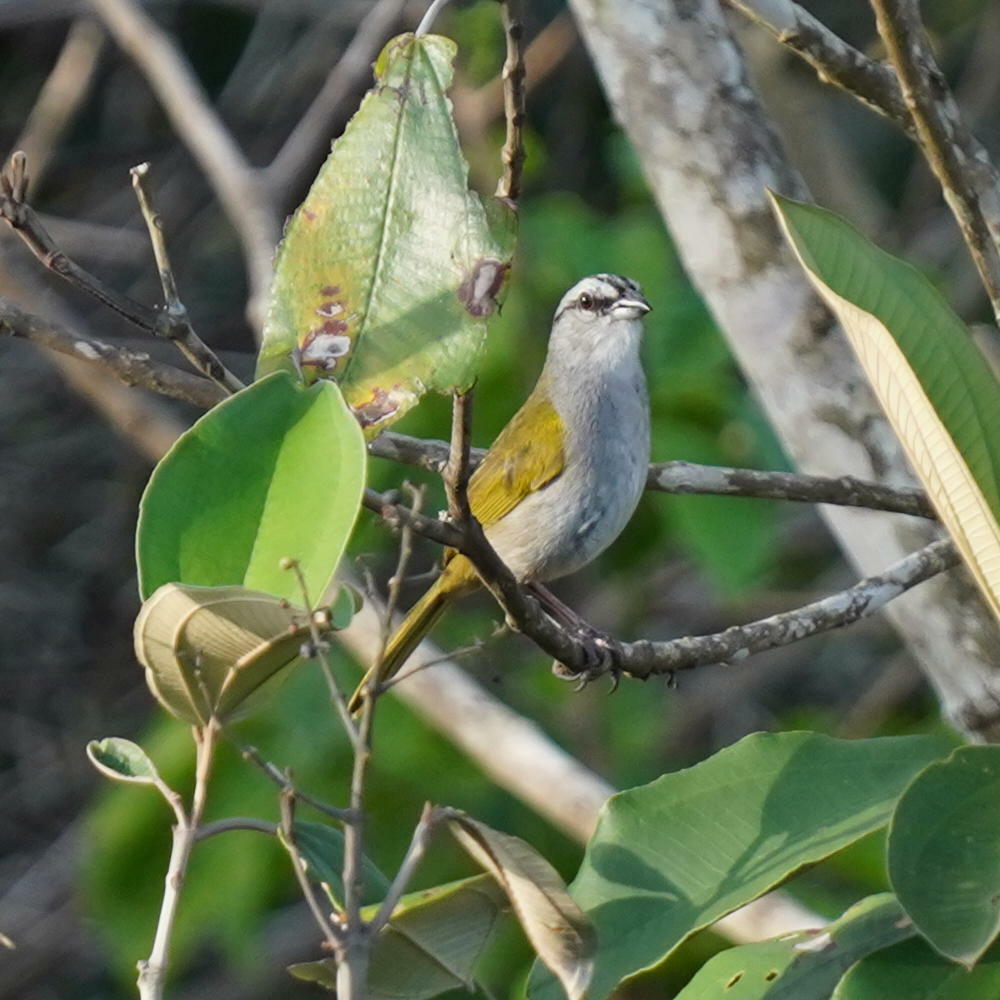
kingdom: Animalia
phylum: Chordata
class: Aves
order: Passeriformes
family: Passerellidae
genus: Arremonops
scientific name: Arremonops conirostris
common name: Black-striped sparrow
